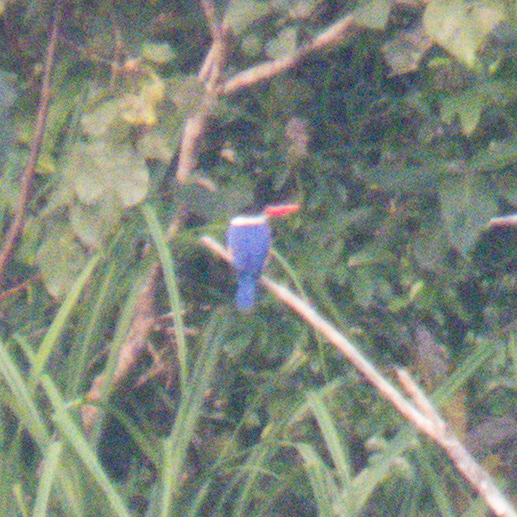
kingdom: Animalia
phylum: Chordata
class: Aves
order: Coraciiformes
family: Alcedinidae
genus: Halcyon
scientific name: Halcyon pileata
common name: Black-capped kingfisher
